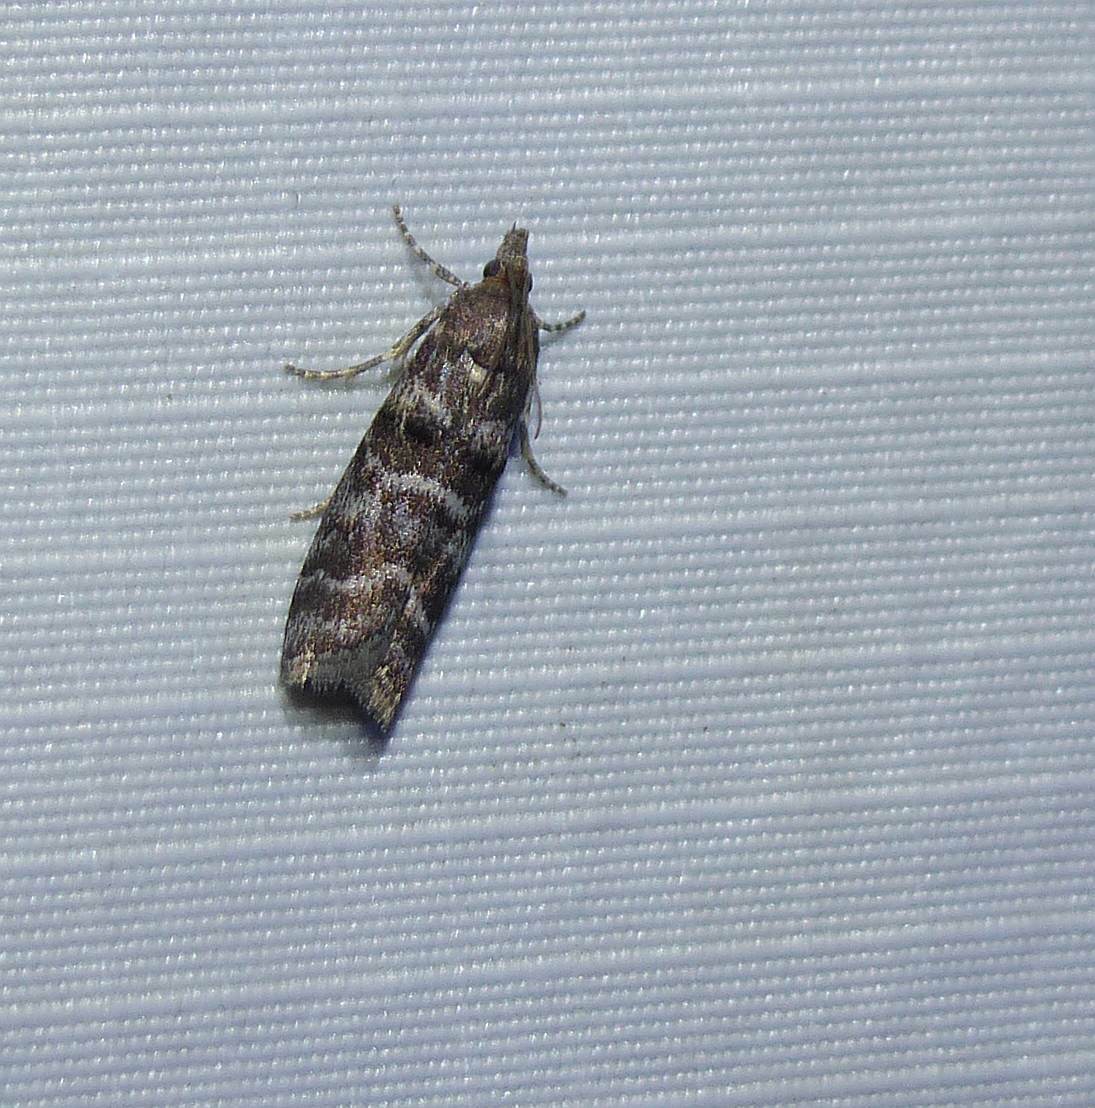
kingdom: Animalia
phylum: Arthropoda
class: Insecta
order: Lepidoptera
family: Pyralidae
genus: Ortholepis
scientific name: Ortholepis pasadamia
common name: Striped birch pyralid moth
